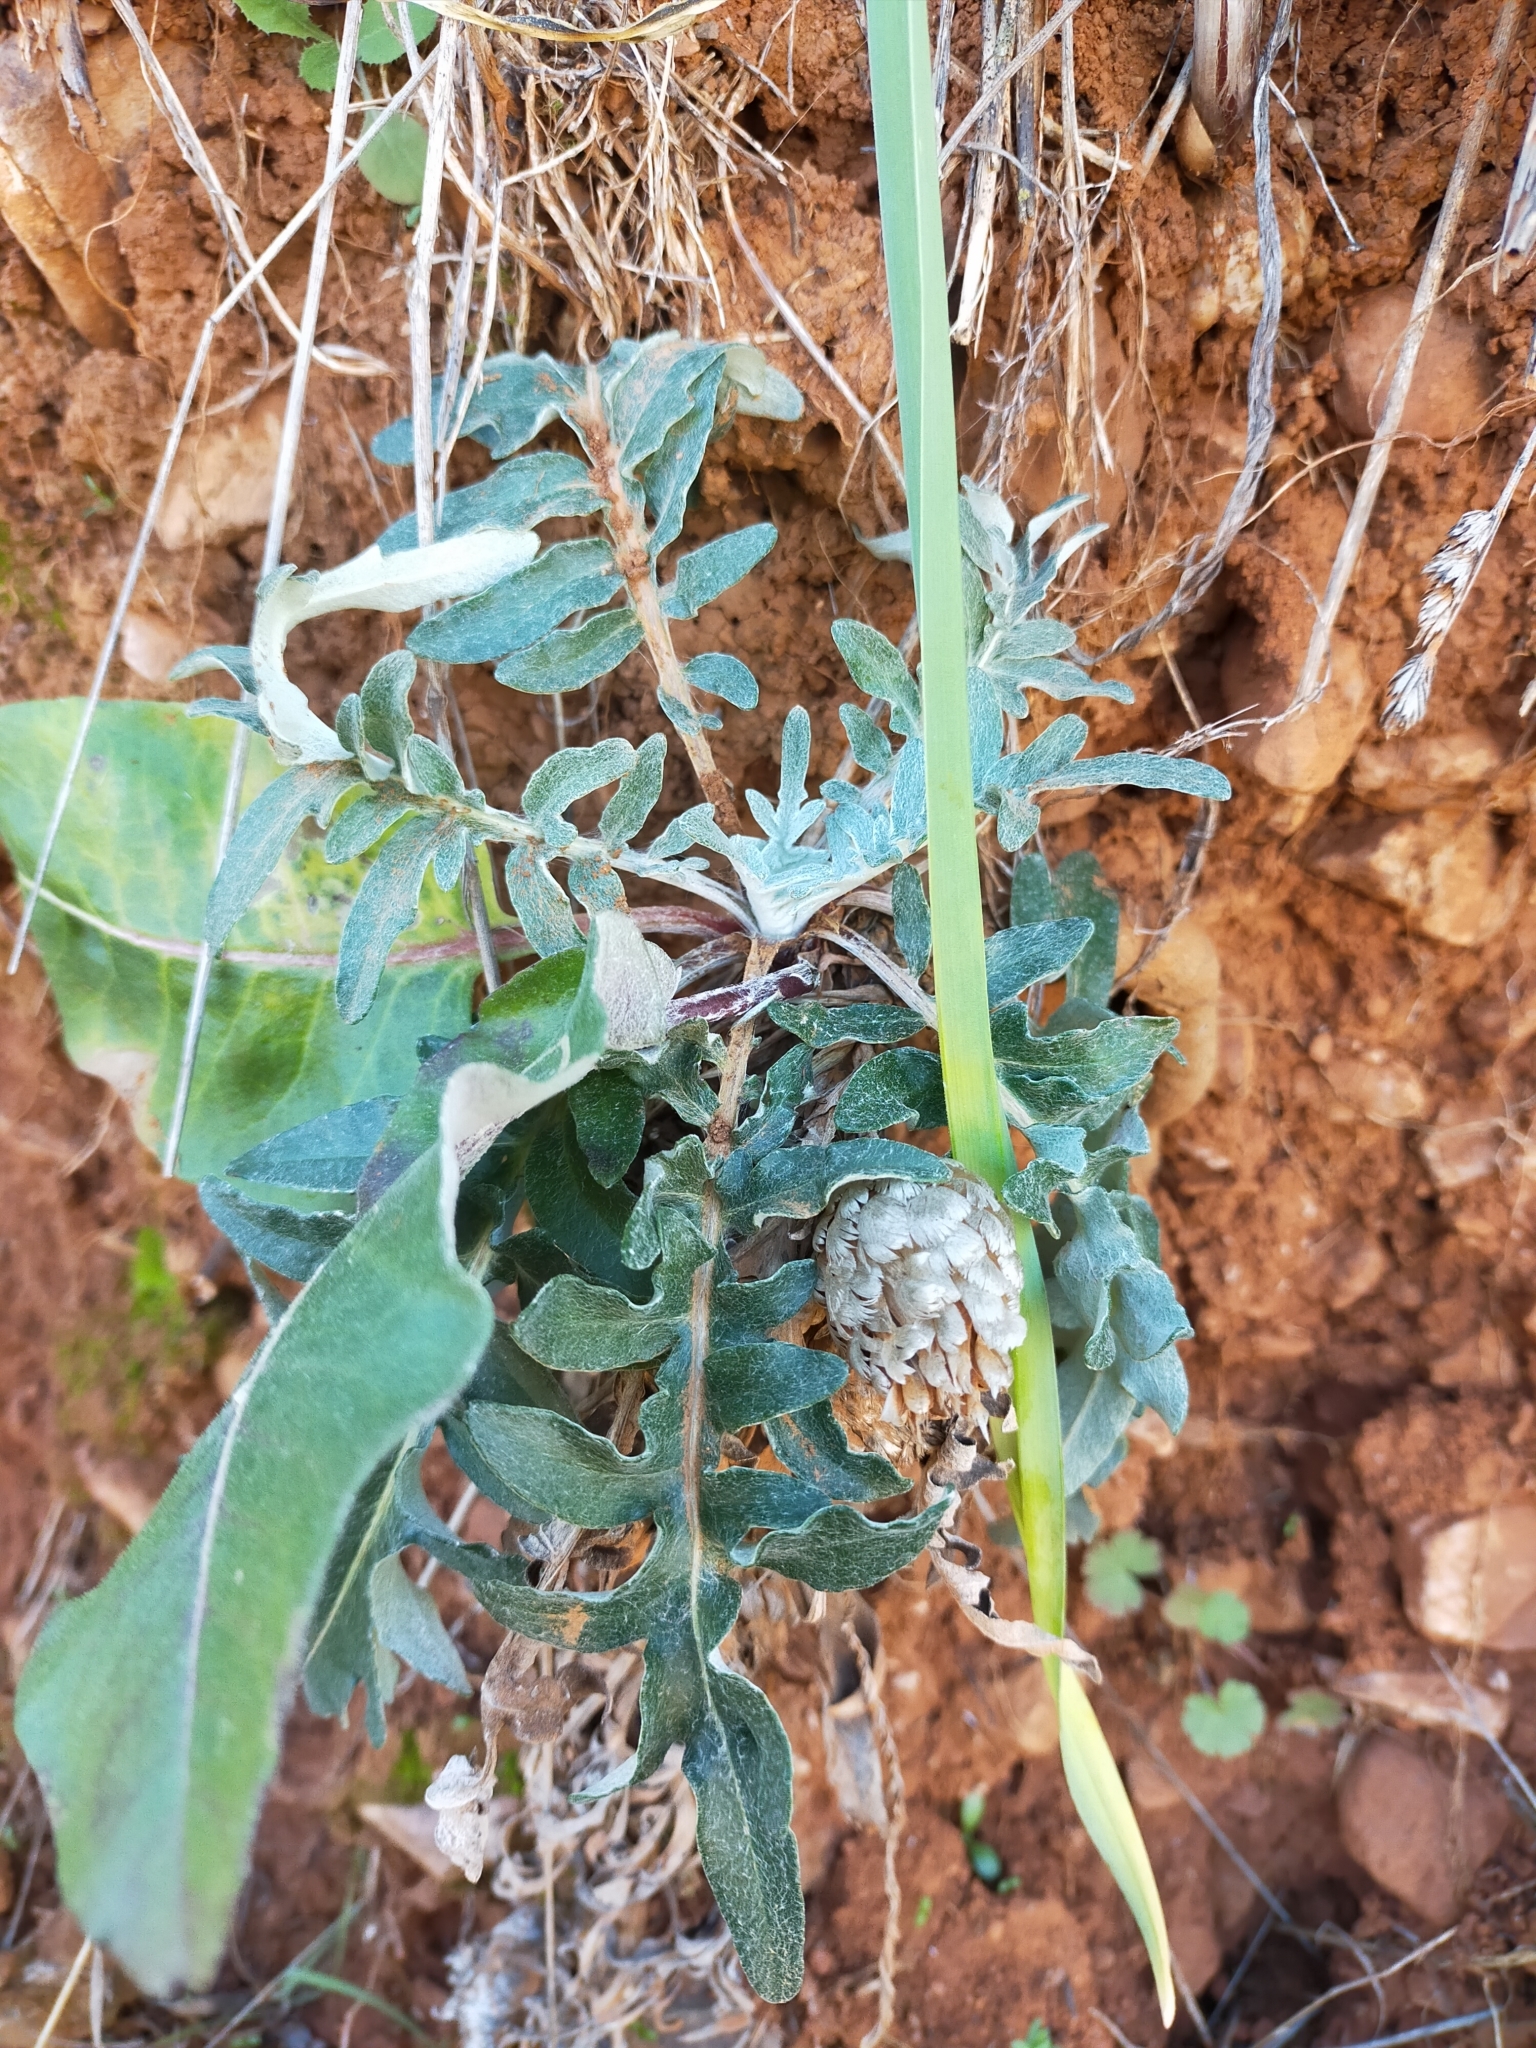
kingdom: Plantae
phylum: Tracheophyta
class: Magnoliopsida
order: Asterales
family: Asteraceae
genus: Leuzea
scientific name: Leuzea conifera
